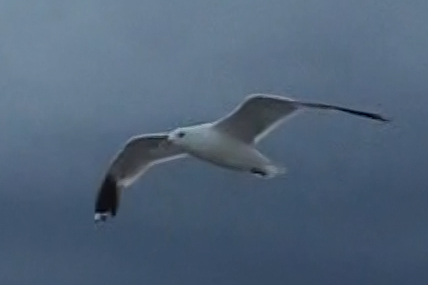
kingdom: Animalia
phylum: Chordata
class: Aves
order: Charadriiformes
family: Laridae
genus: Larus
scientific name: Larus canus
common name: Mew gull
